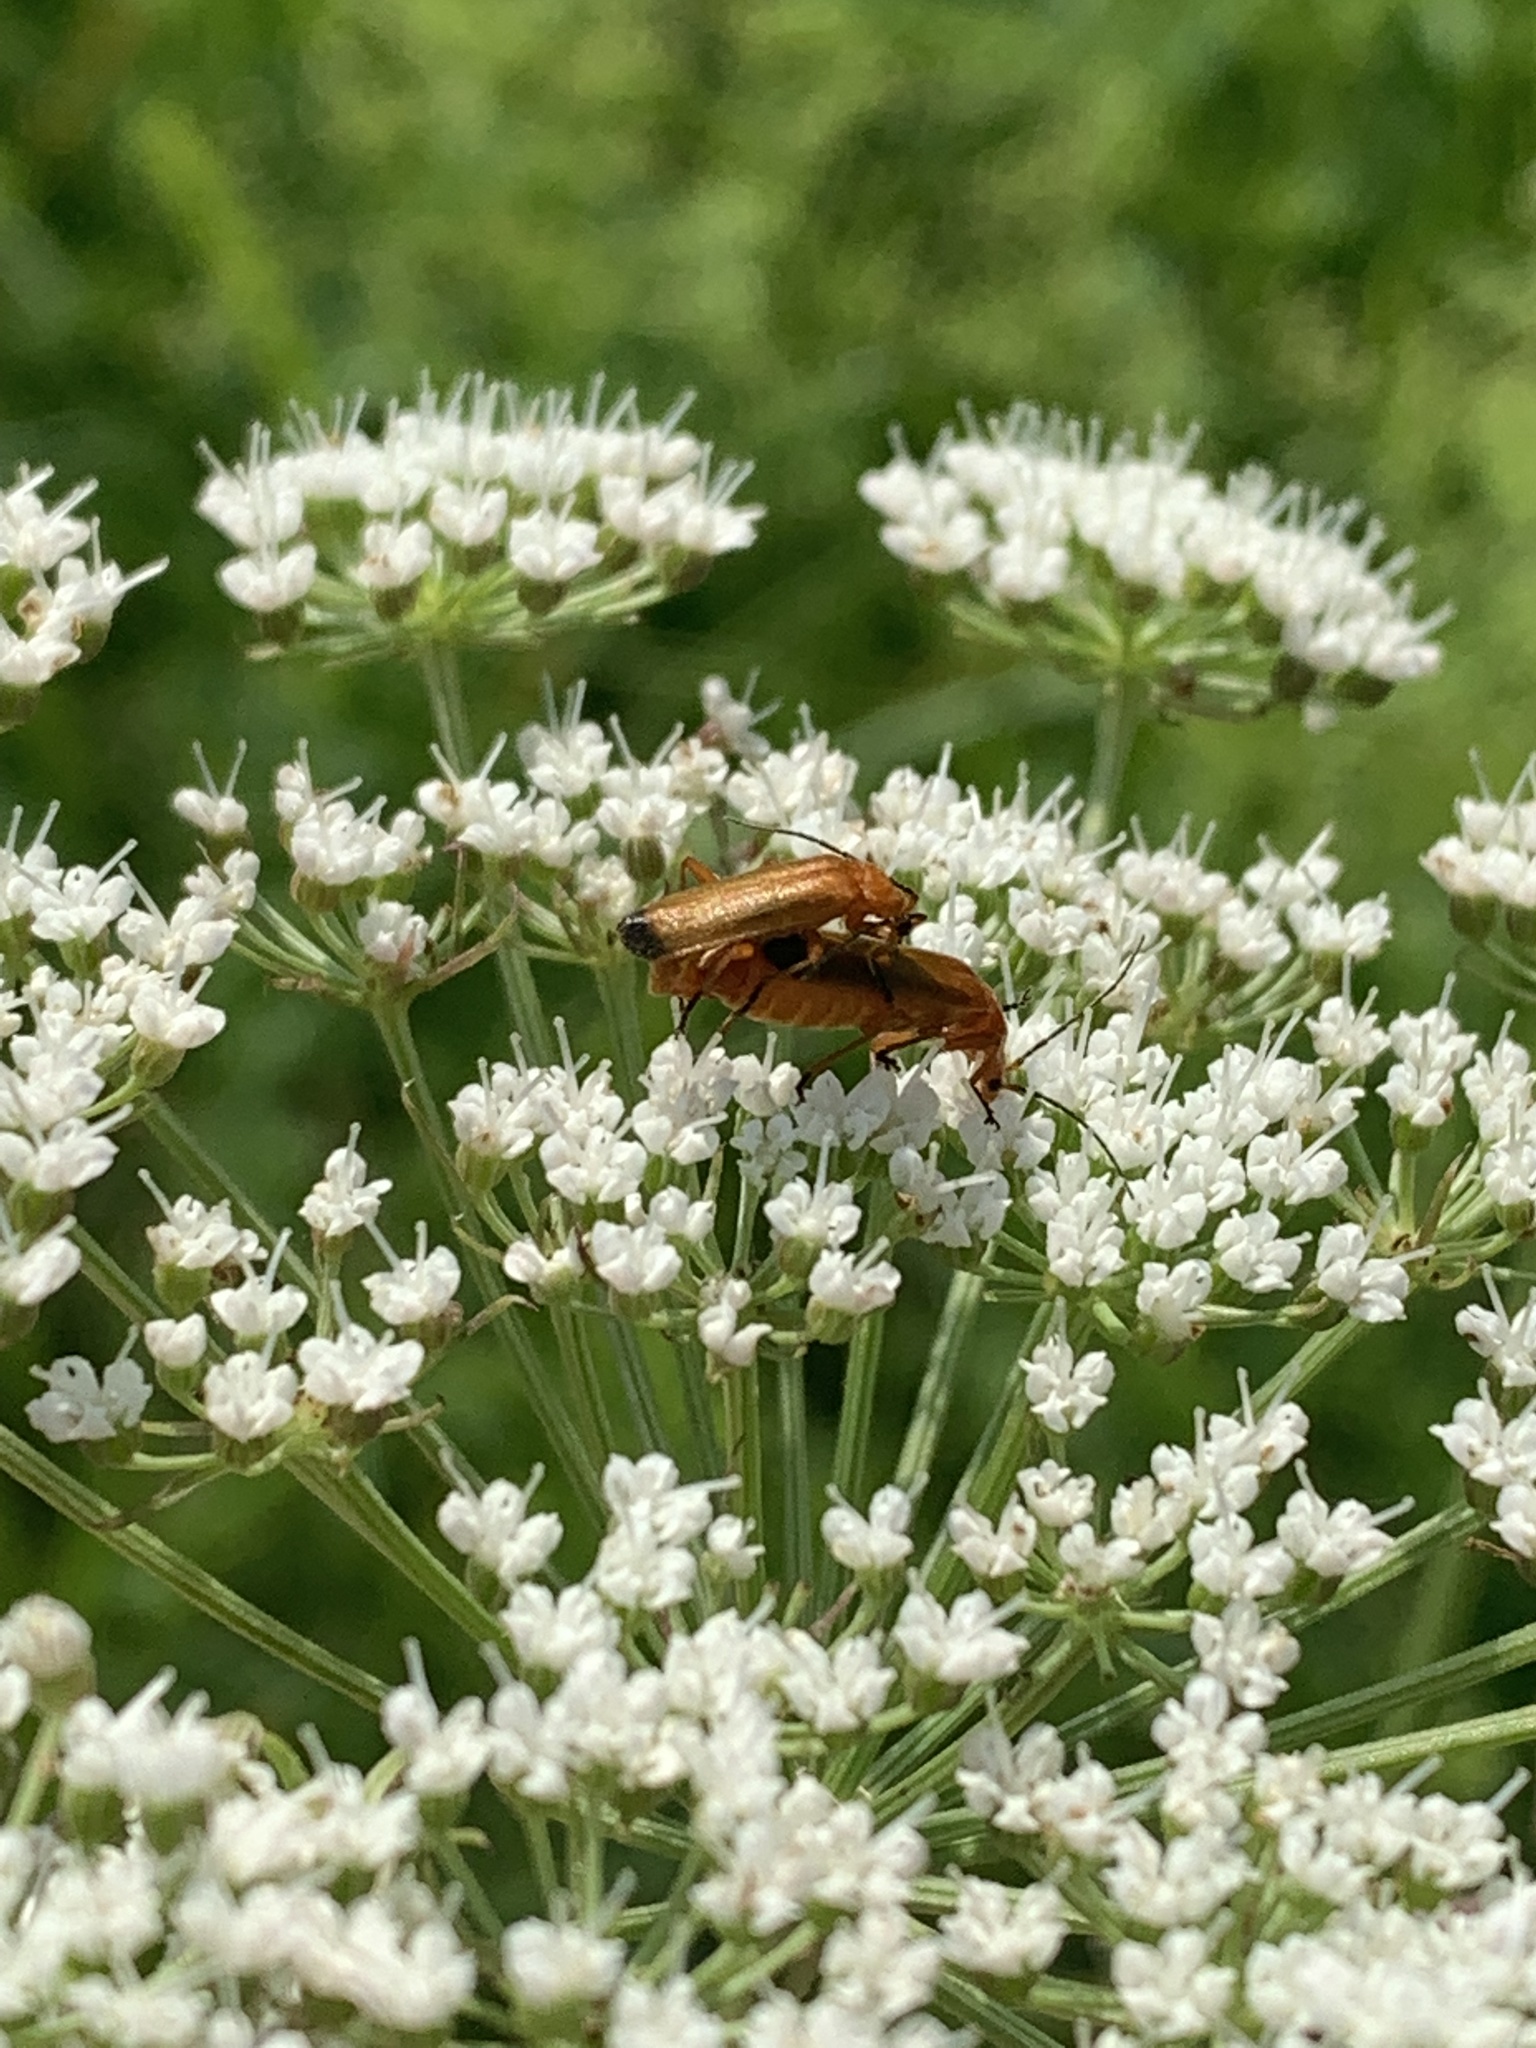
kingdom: Animalia
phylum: Arthropoda
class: Insecta
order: Coleoptera
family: Cantharidae
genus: Rhagonycha
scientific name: Rhagonycha fulva
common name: Common red soldier beetle
